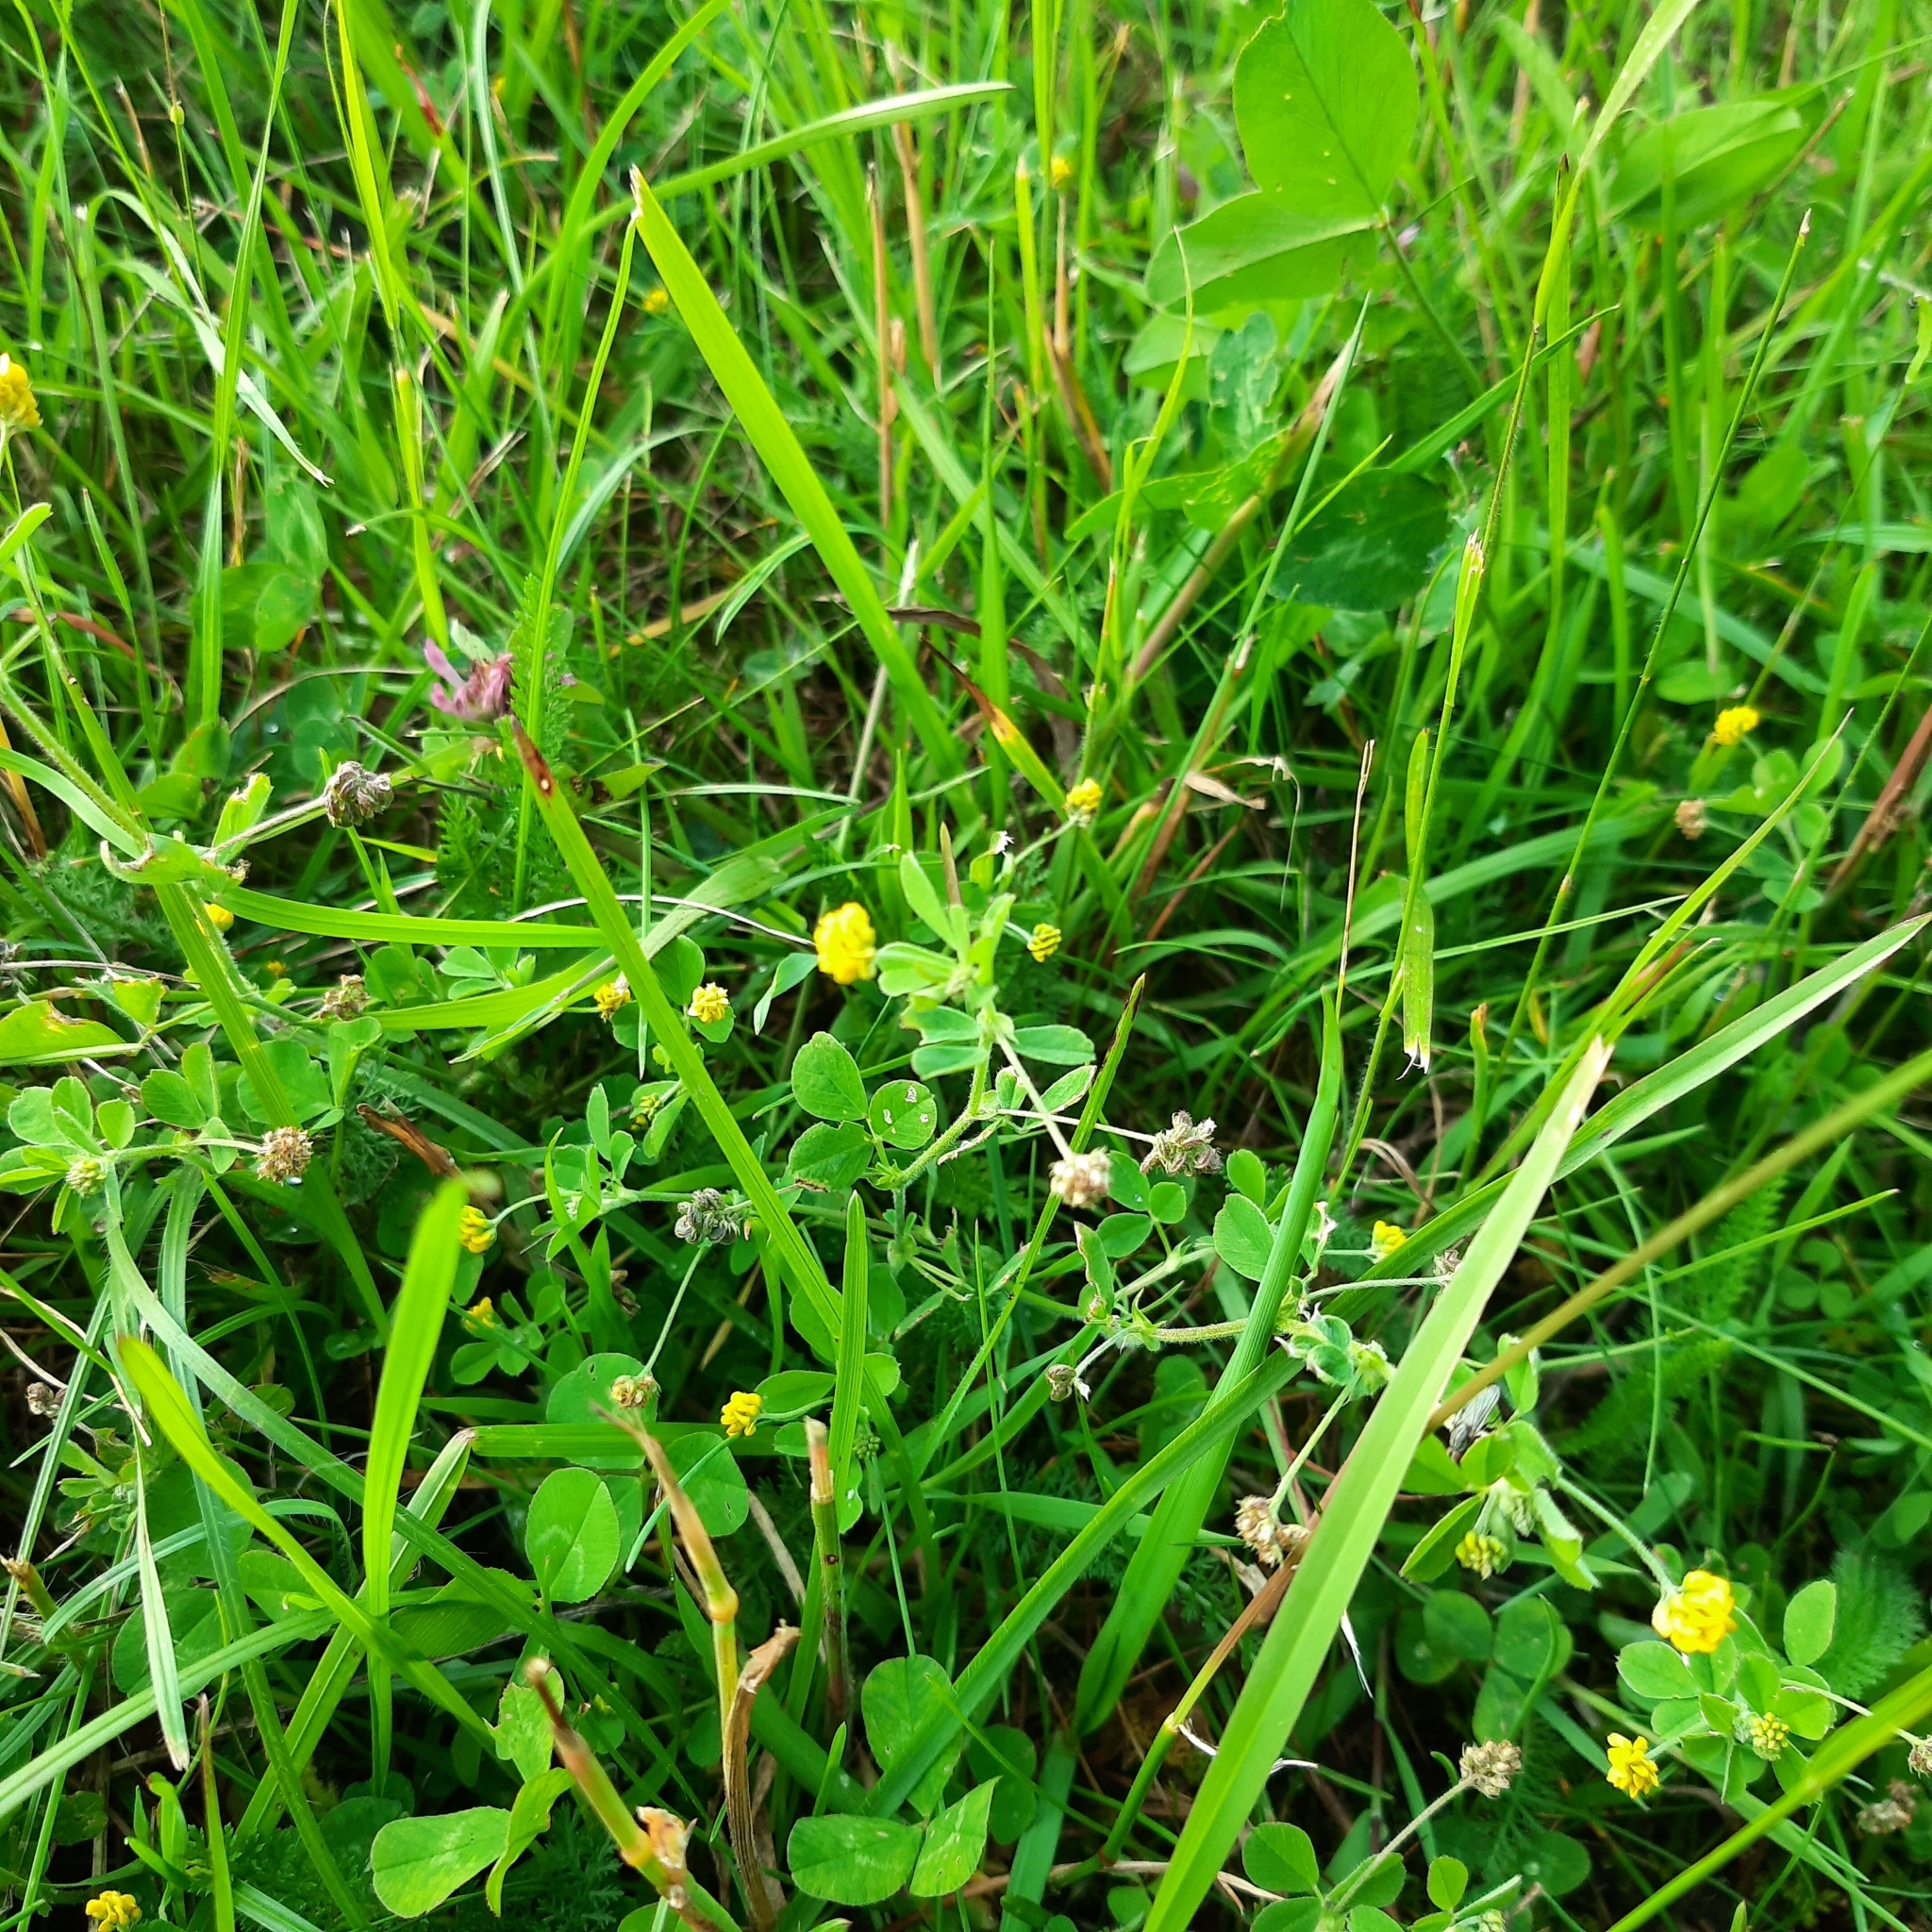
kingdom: Plantae
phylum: Tracheophyta
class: Magnoliopsida
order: Fabales
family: Fabaceae
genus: Medicago
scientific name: Medicago lupulina
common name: Black medick
